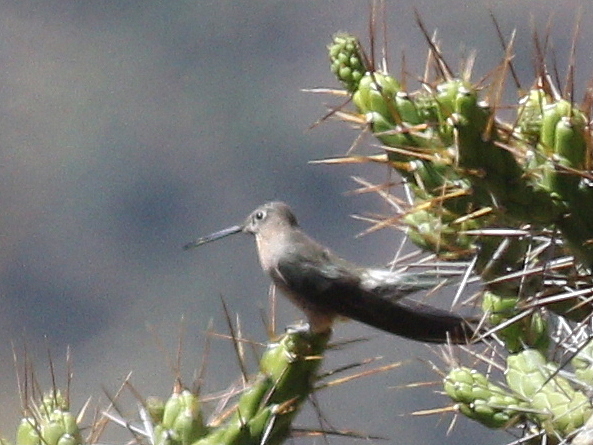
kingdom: Animalia
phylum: Chordata
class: Aves
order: Apodiformes
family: Trochilidae
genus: Patagona
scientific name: Patagona gigas
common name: Giant hummingbird
